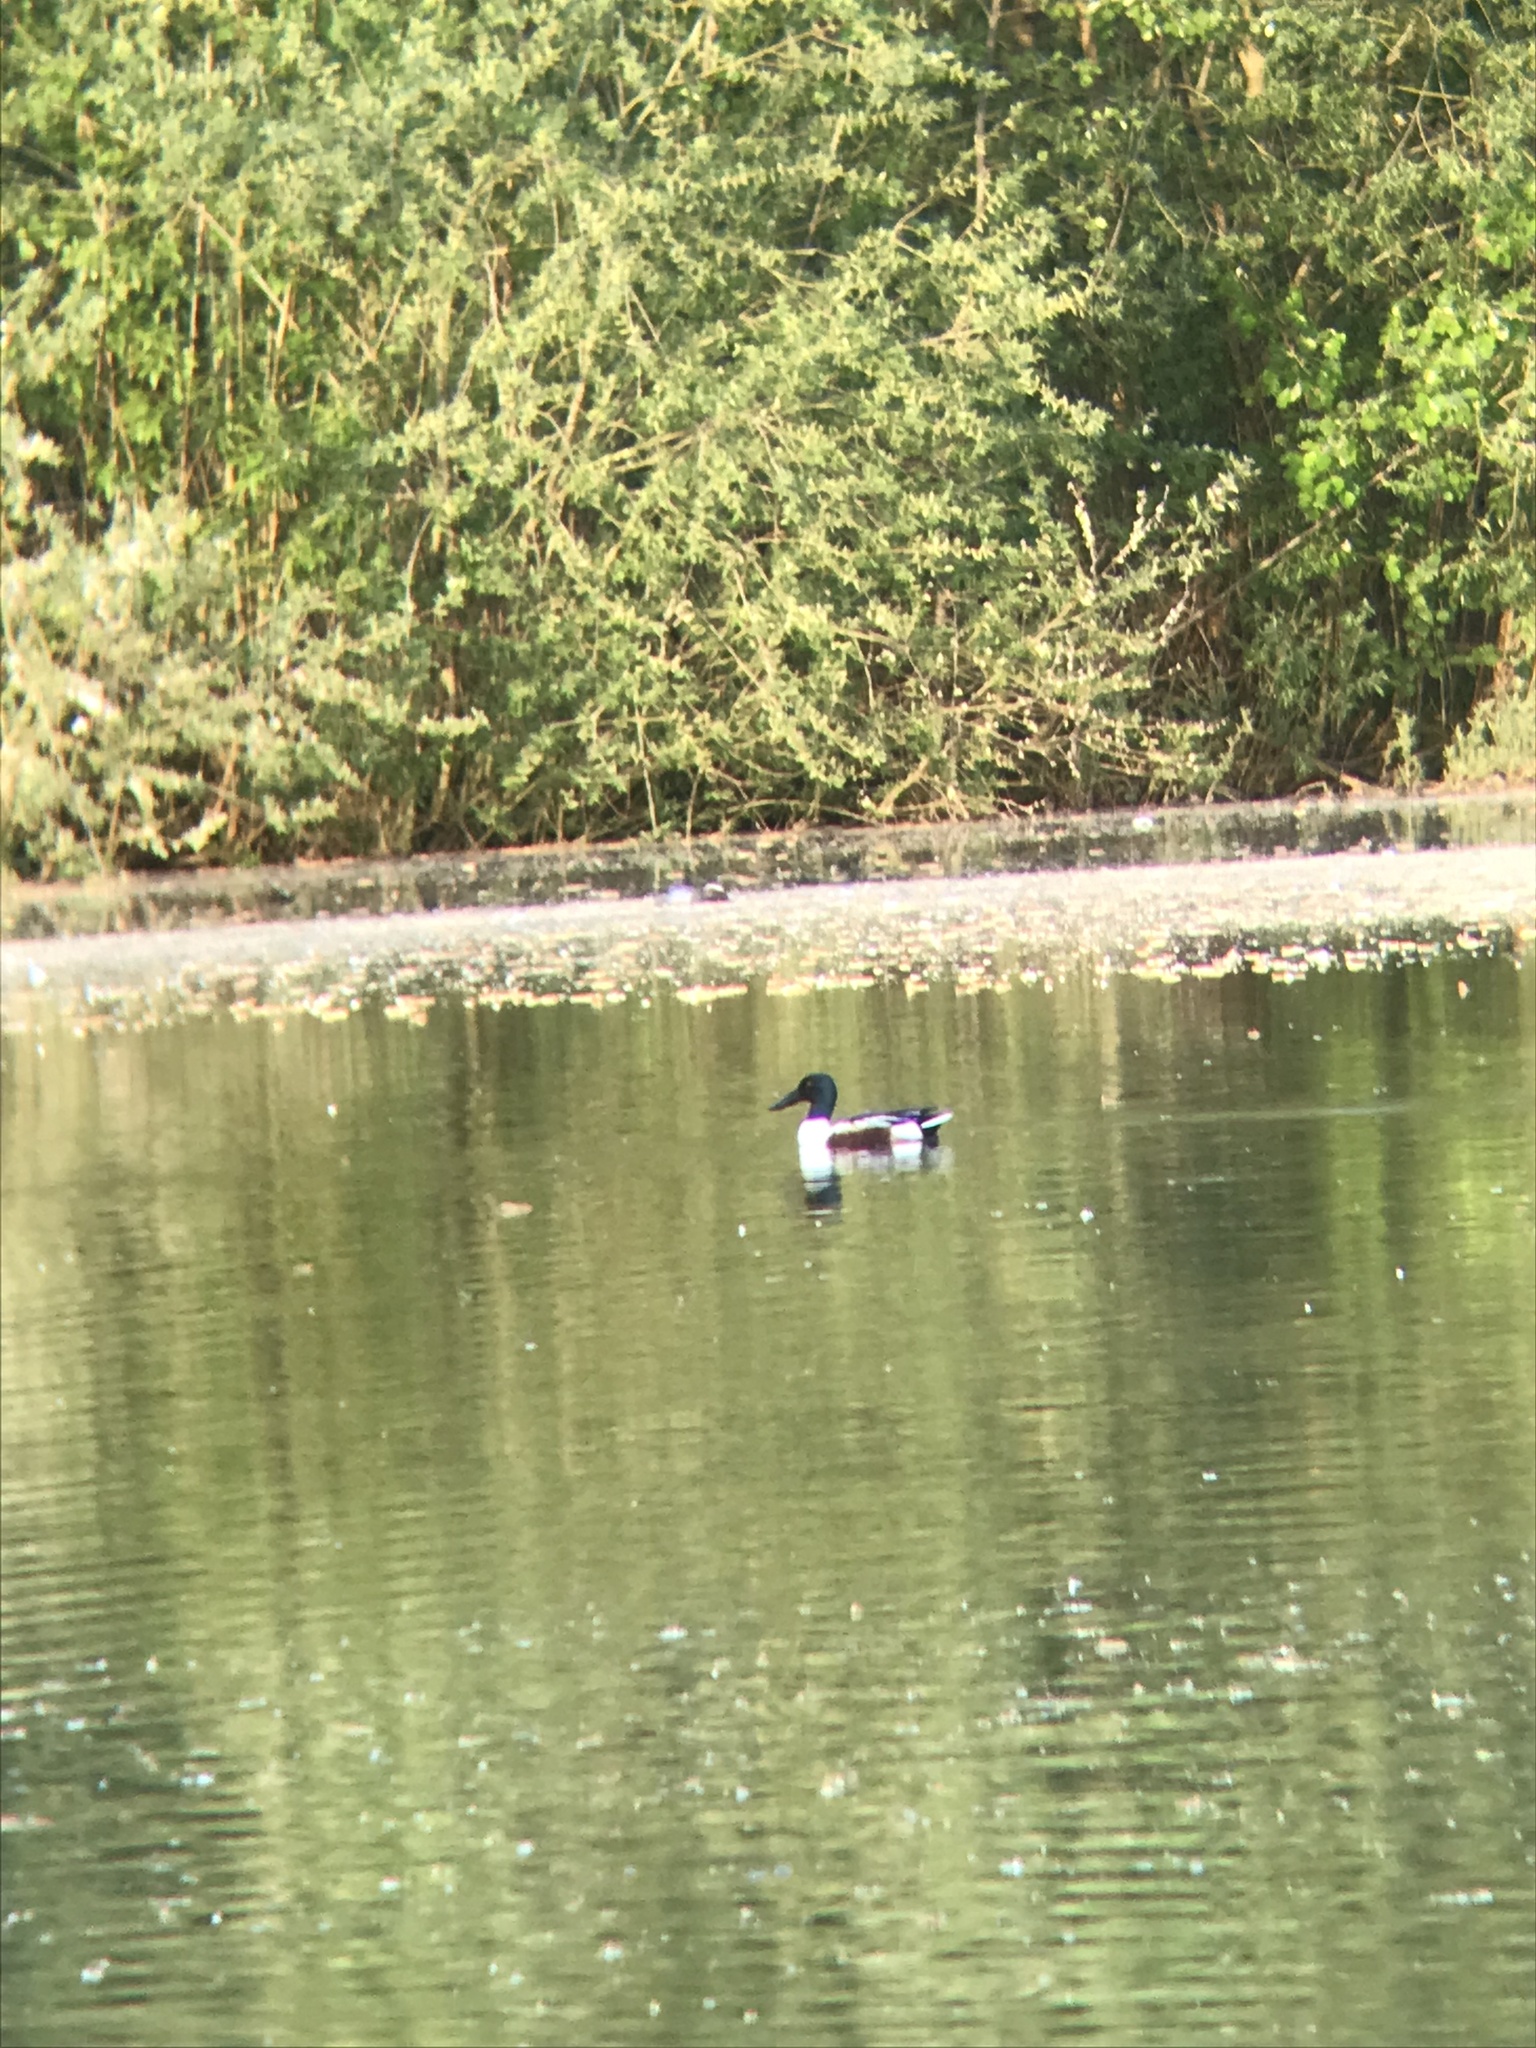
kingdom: Animalia
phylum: Chordata
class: Aves
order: Anseriformes
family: Anatidae
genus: Spatula
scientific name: Spatula clypeata
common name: Northern shoveler
